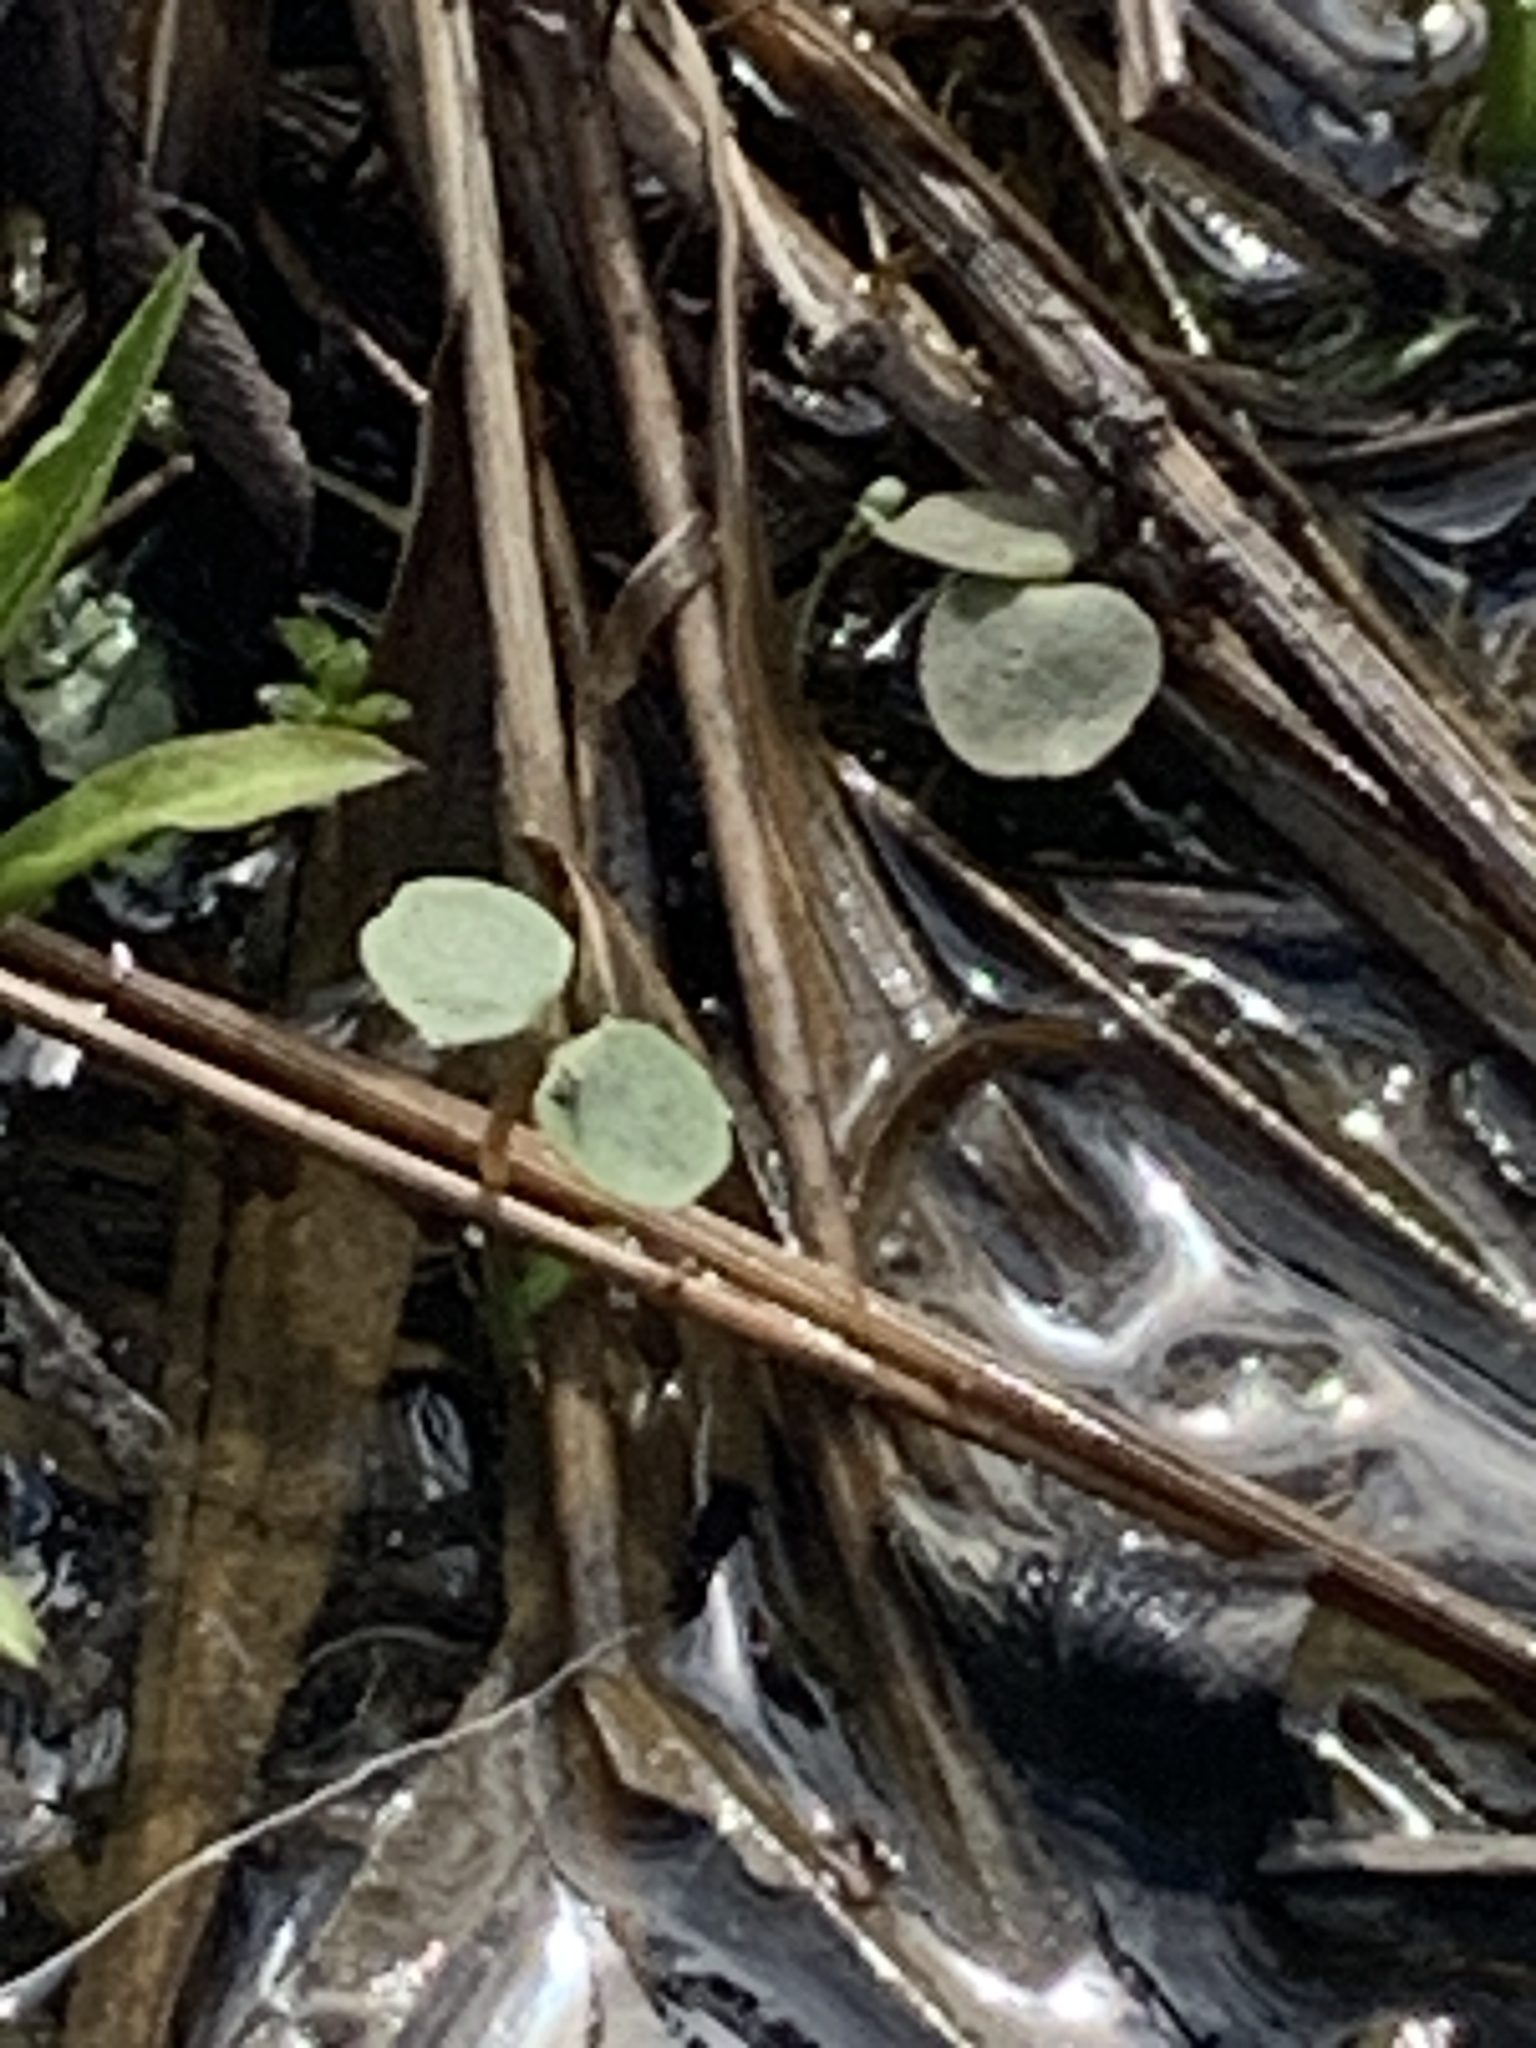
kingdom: Plantae
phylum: Tracheophyta
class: Magnoliopsida
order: Ericales
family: Balsaminaceae
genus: Impatiens
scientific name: Impatiens capensis
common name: Orange balsam
